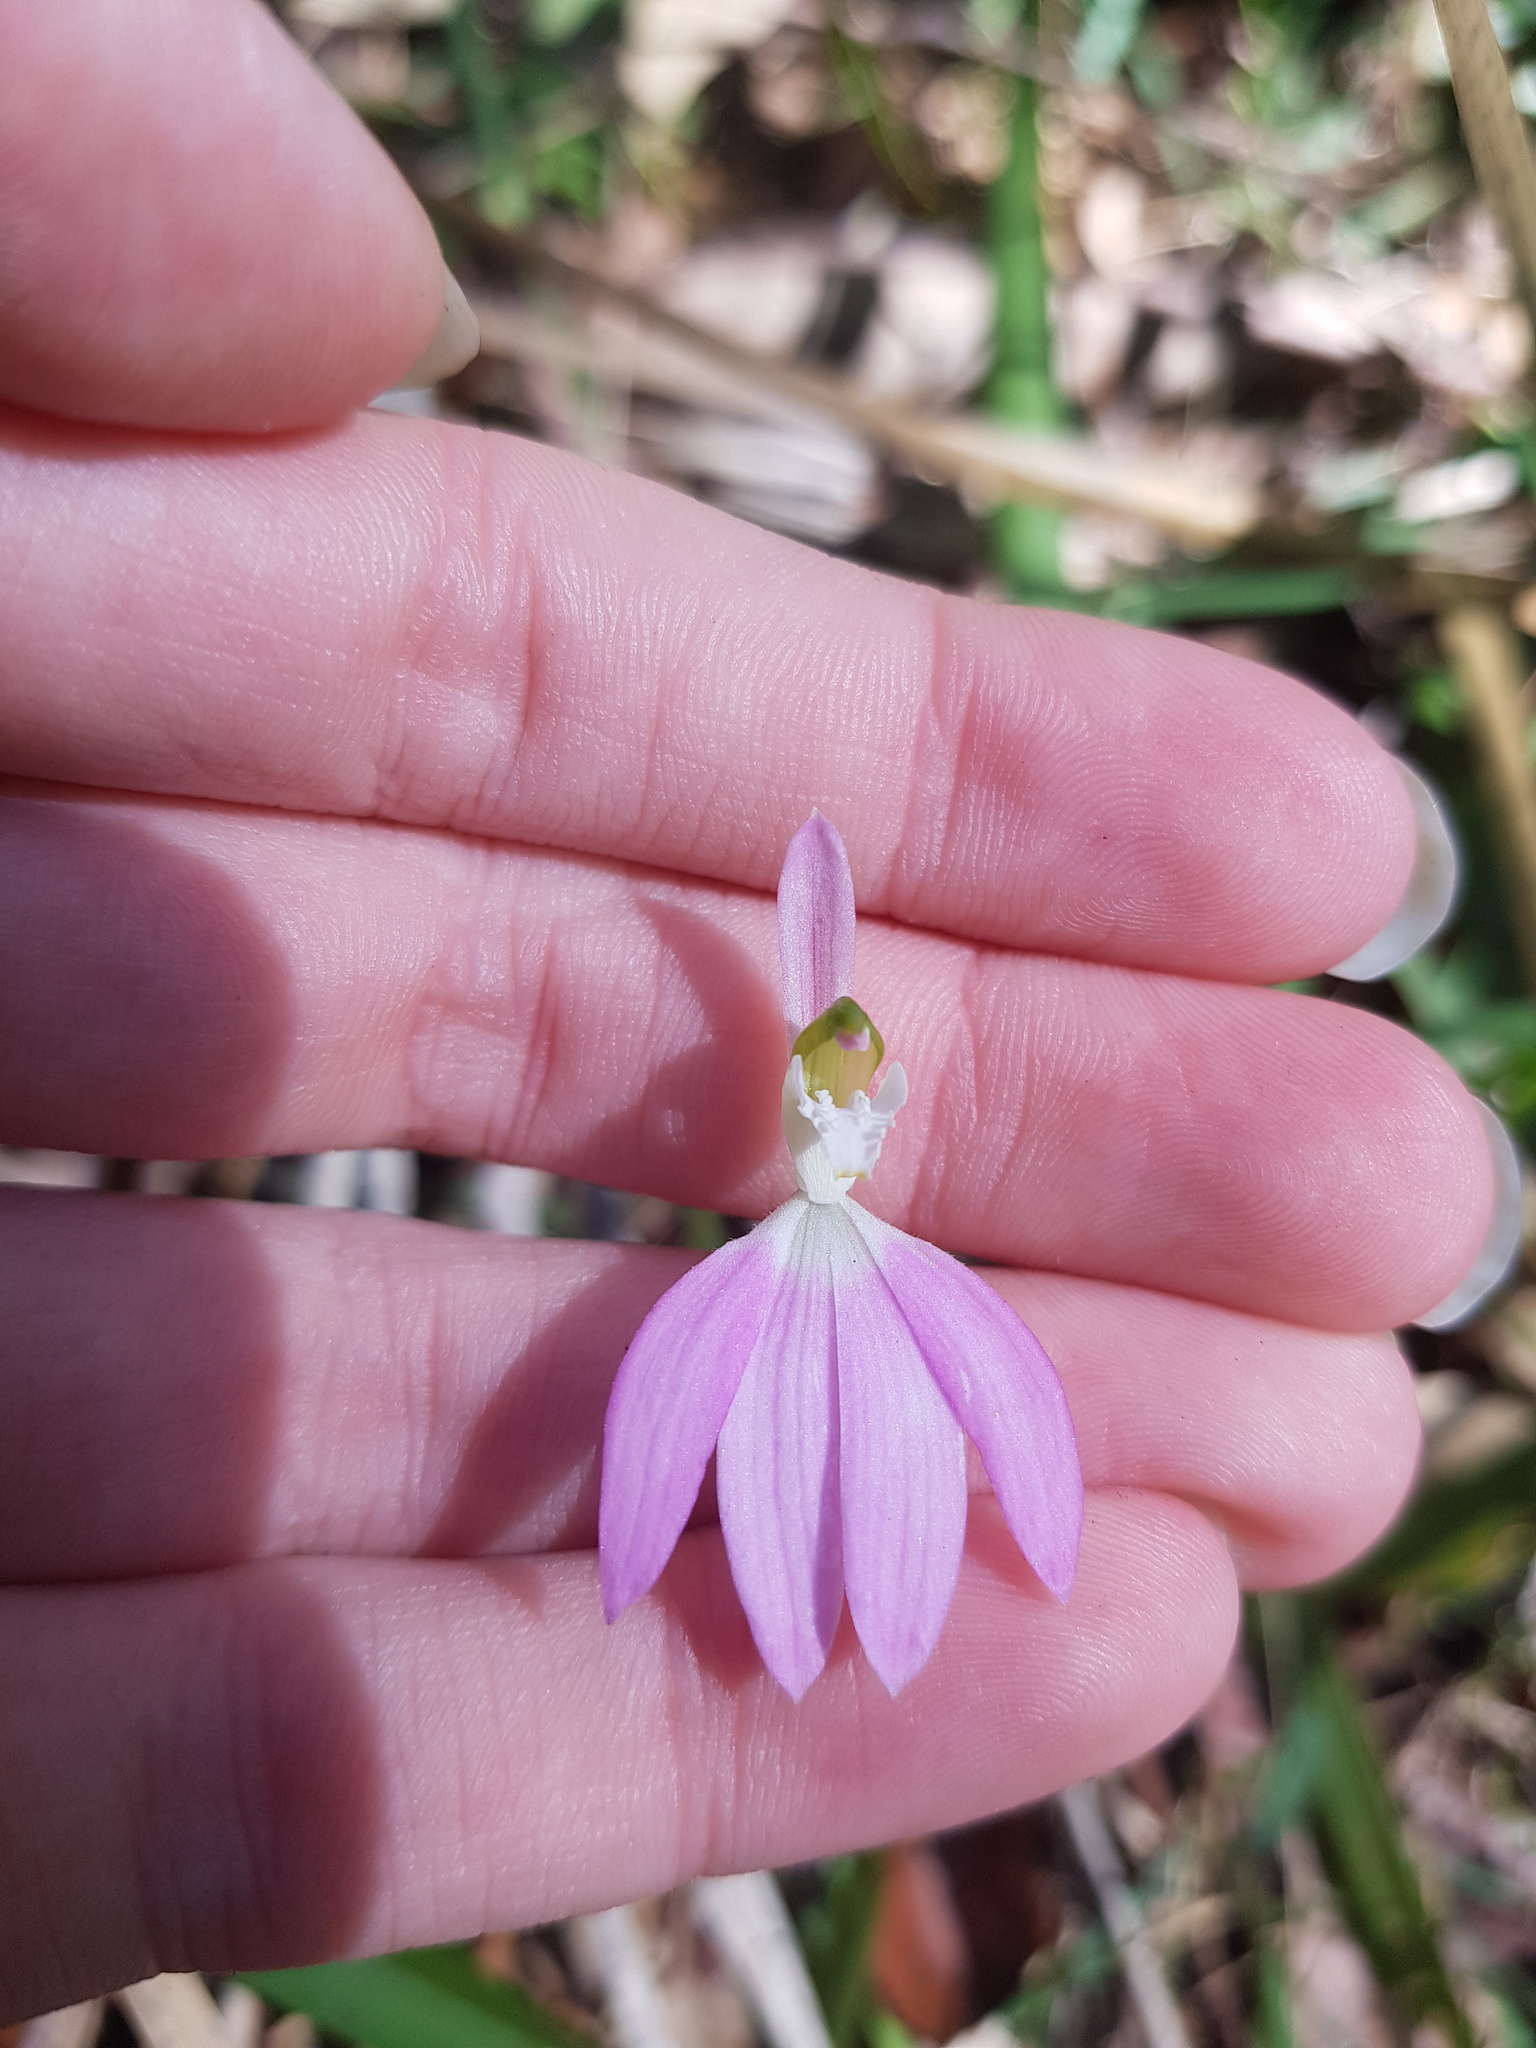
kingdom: Plantae
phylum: Tracheophyta
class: Liliopsida
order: Asparagales
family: Orchidaceae
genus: Caladenia
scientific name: Caladenia catenata
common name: White caladenia
